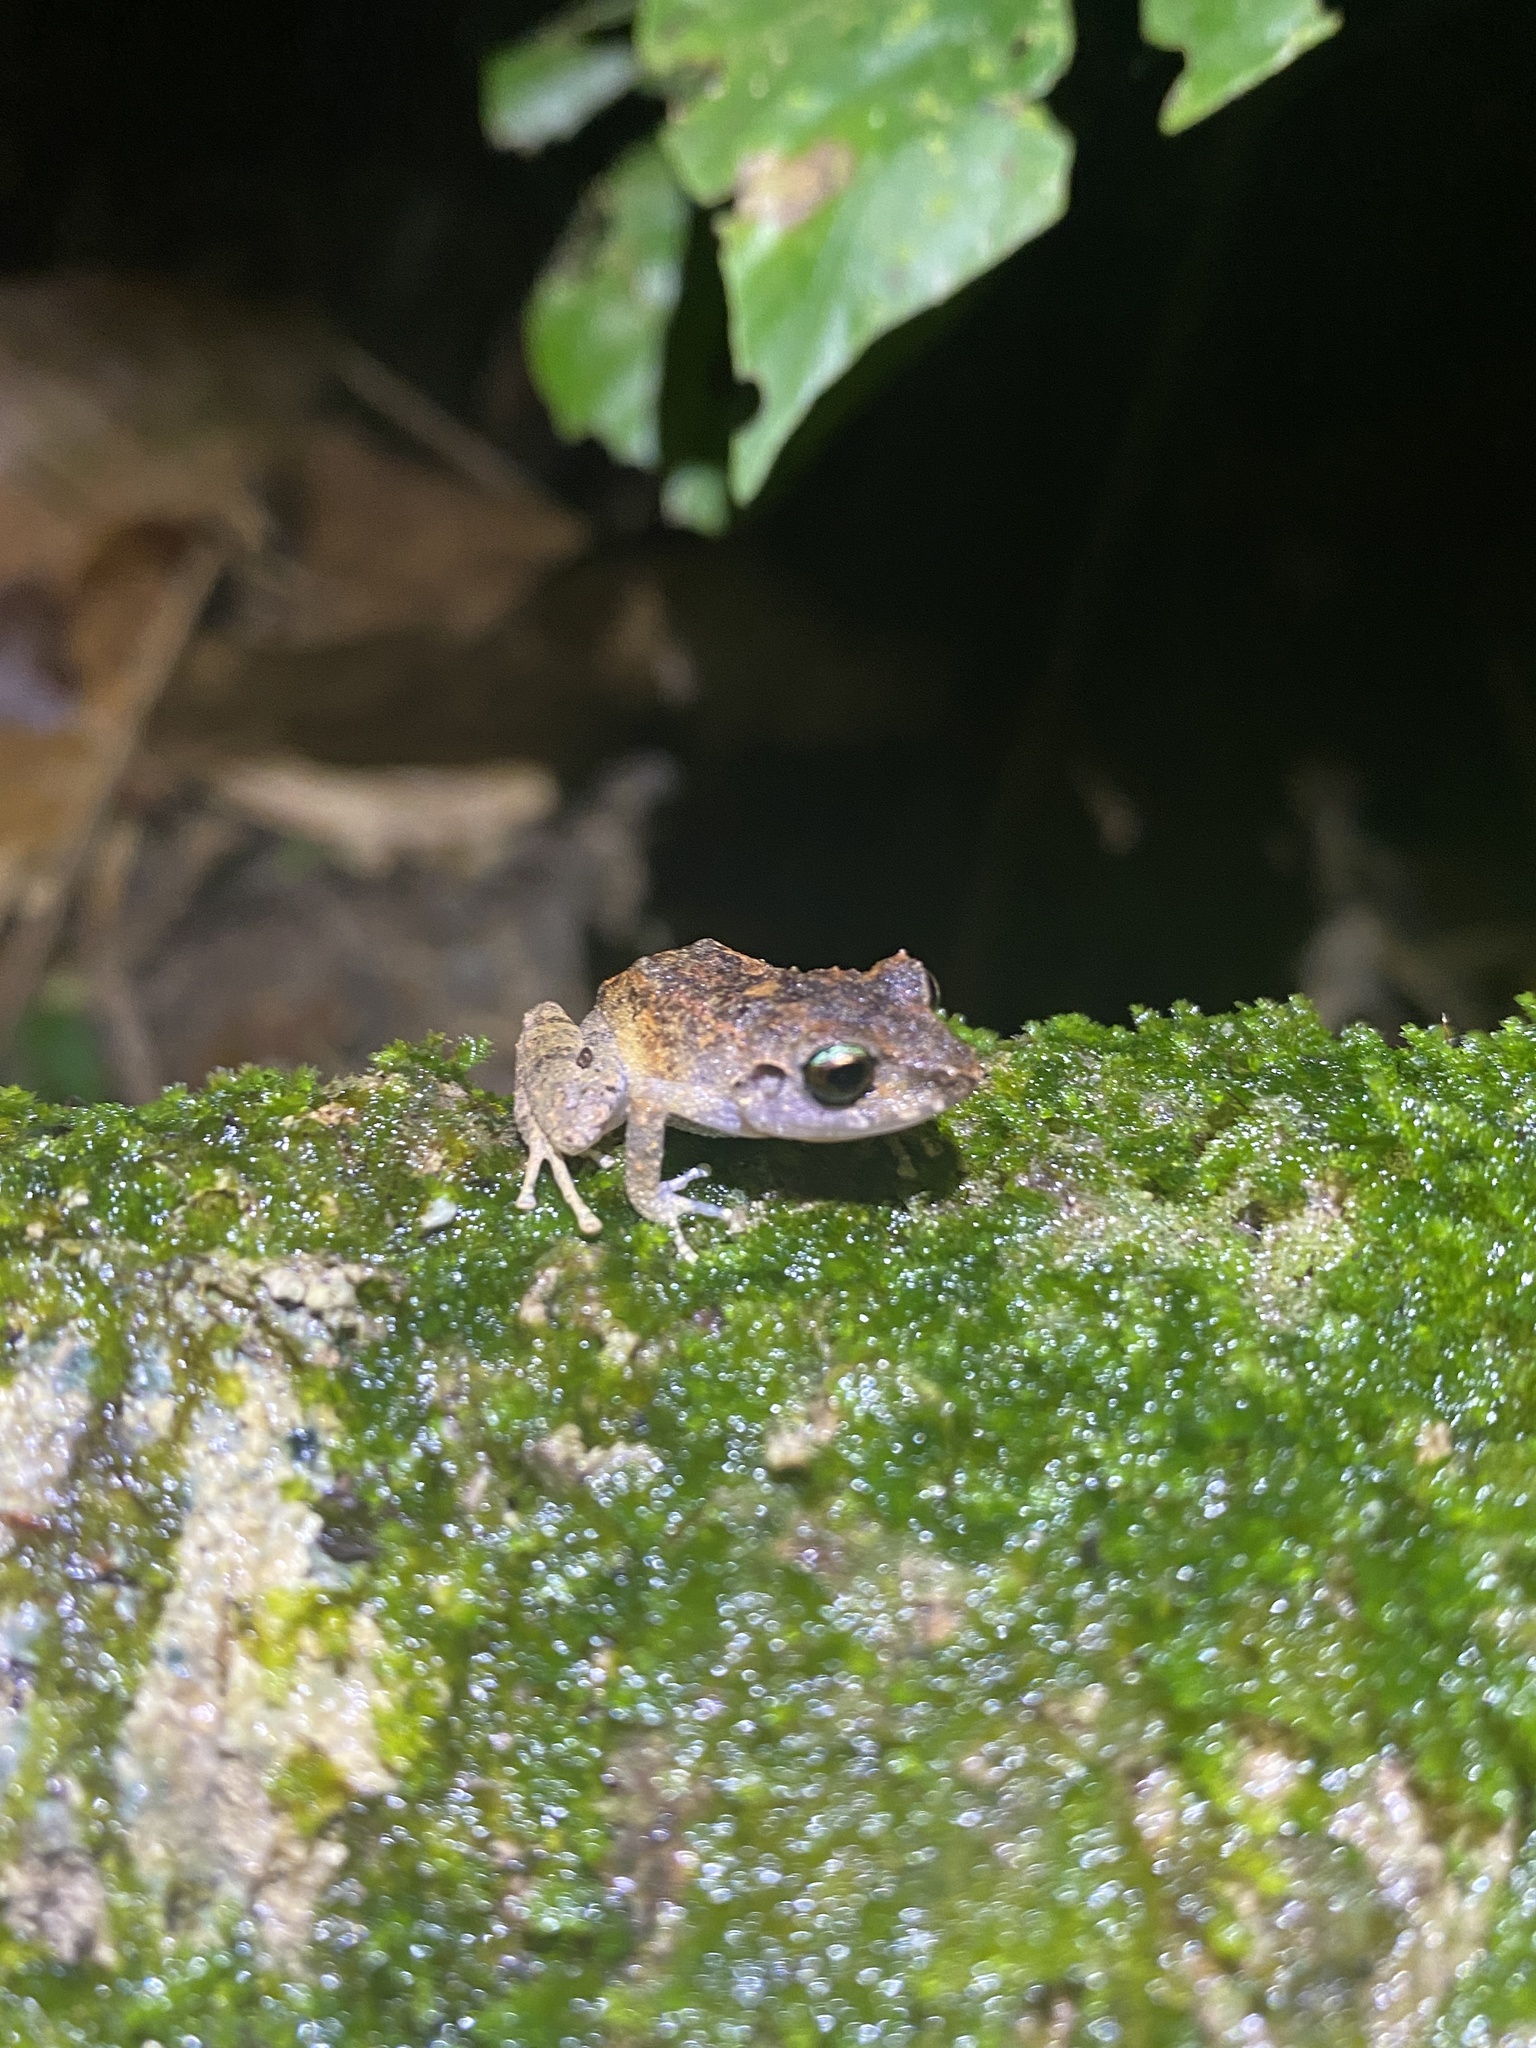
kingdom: Animalia
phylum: Chordata
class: Amphibia
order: Anura
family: Craugastoridae
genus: Pristimantis
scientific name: Pristimantis urichi
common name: Lesser antilles robber frog
